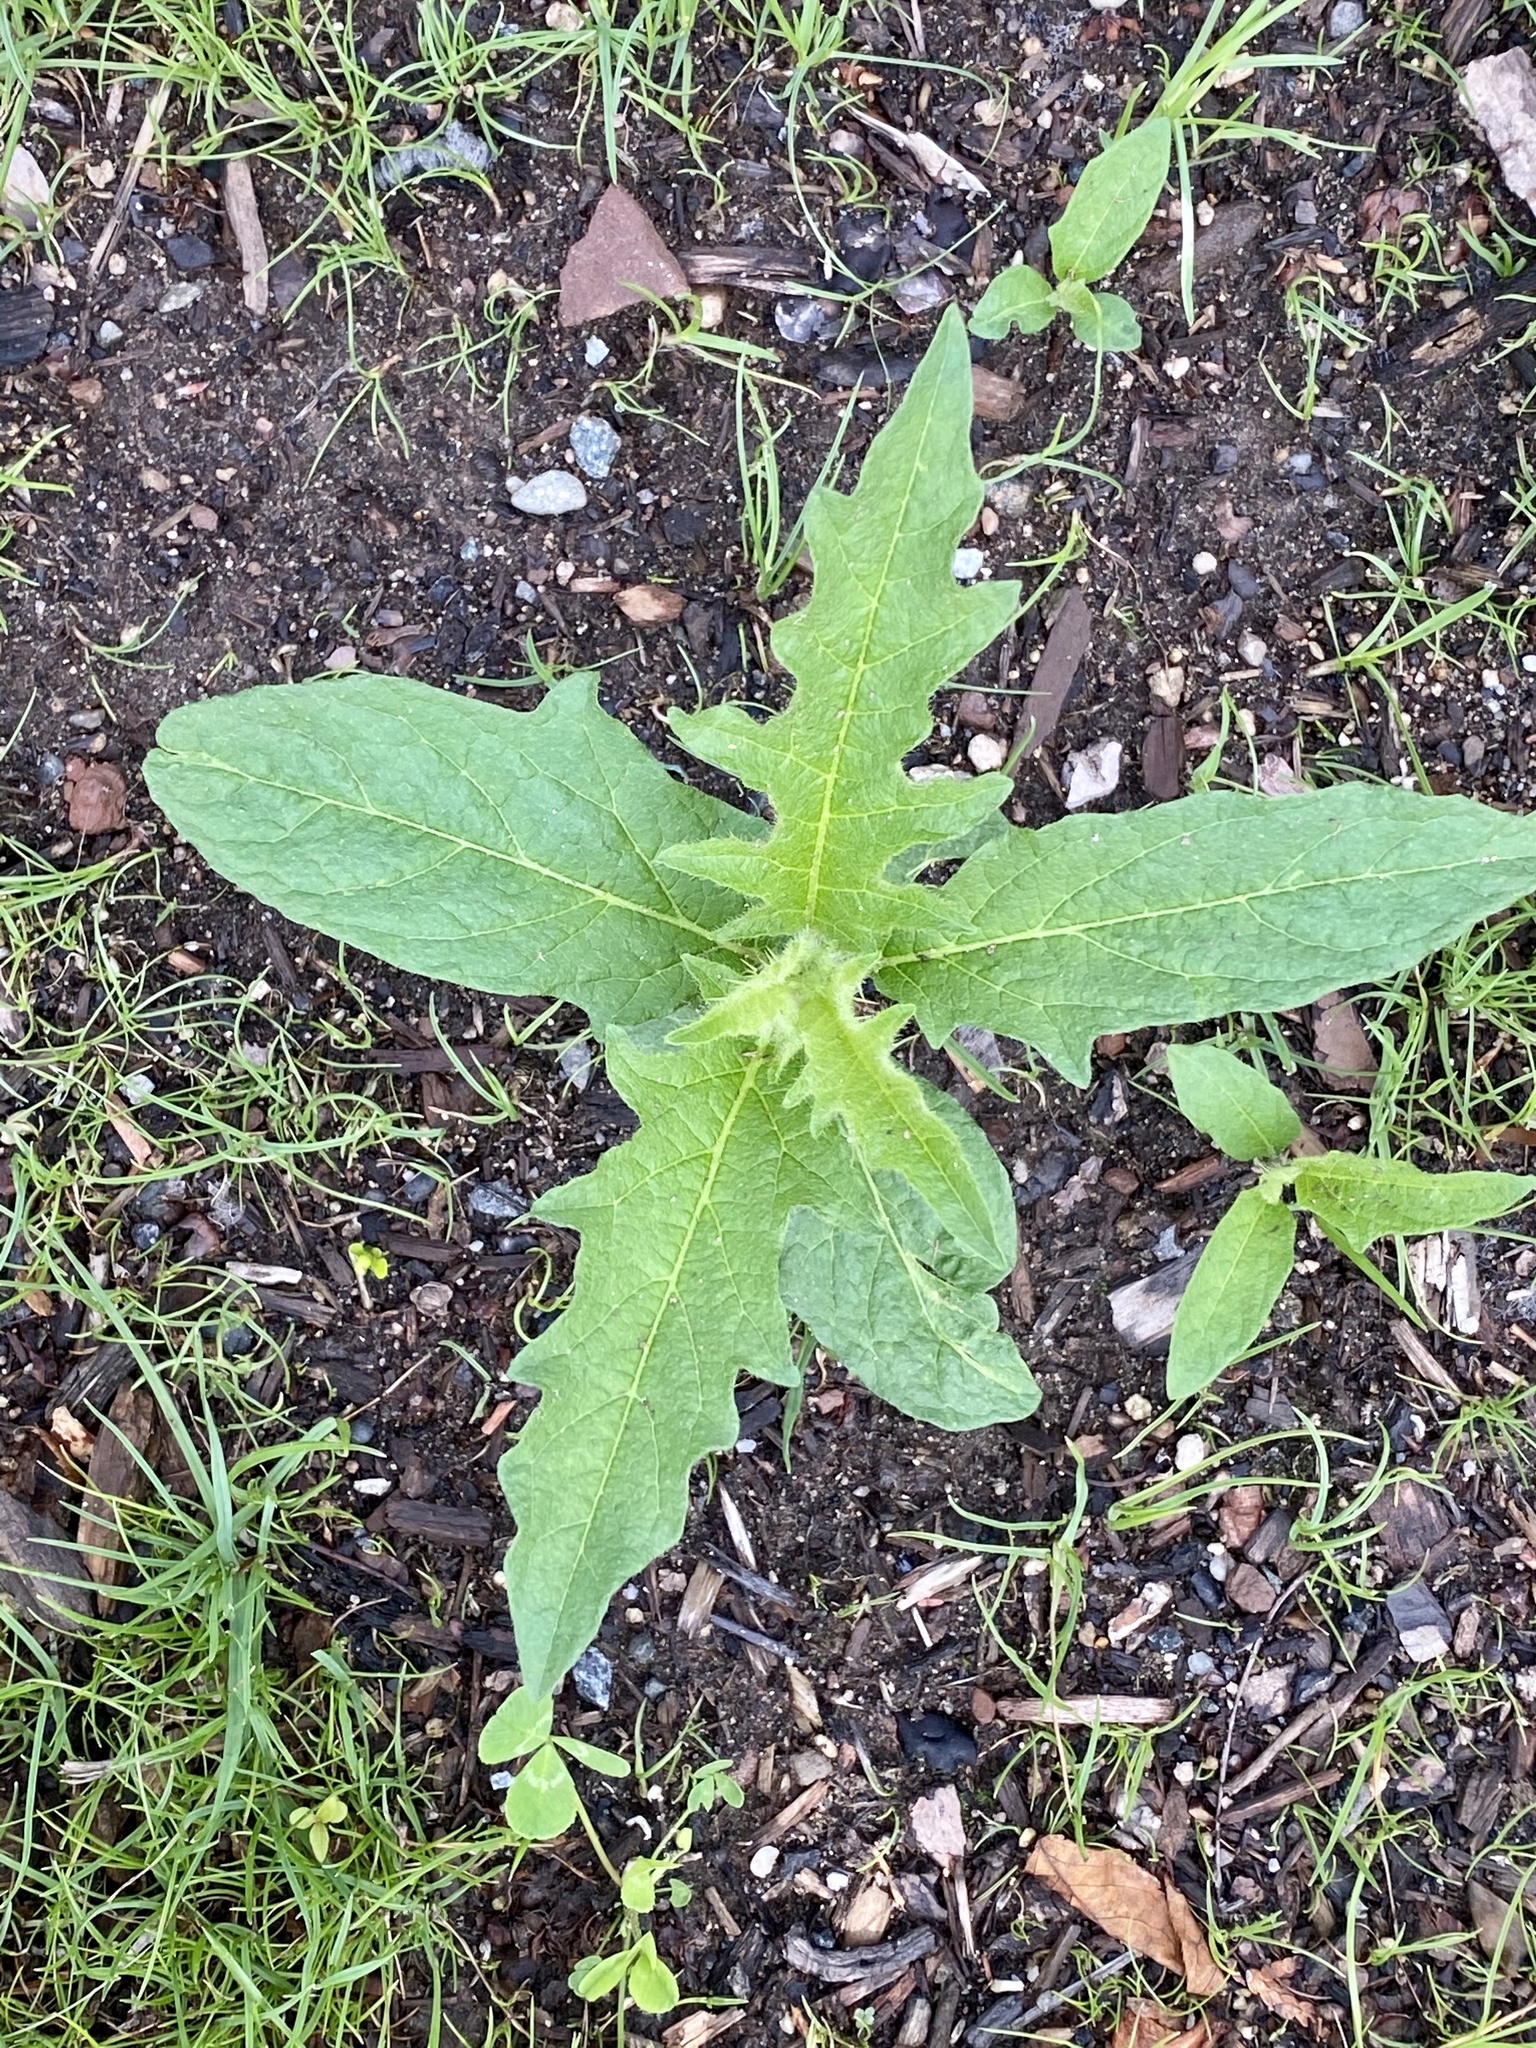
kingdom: Plantae
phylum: Tracheophyta
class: Magnoliopsida
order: Solanales
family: Solanaceae
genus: Solanum
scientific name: Solanum carolinense
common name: Horse-nettle
